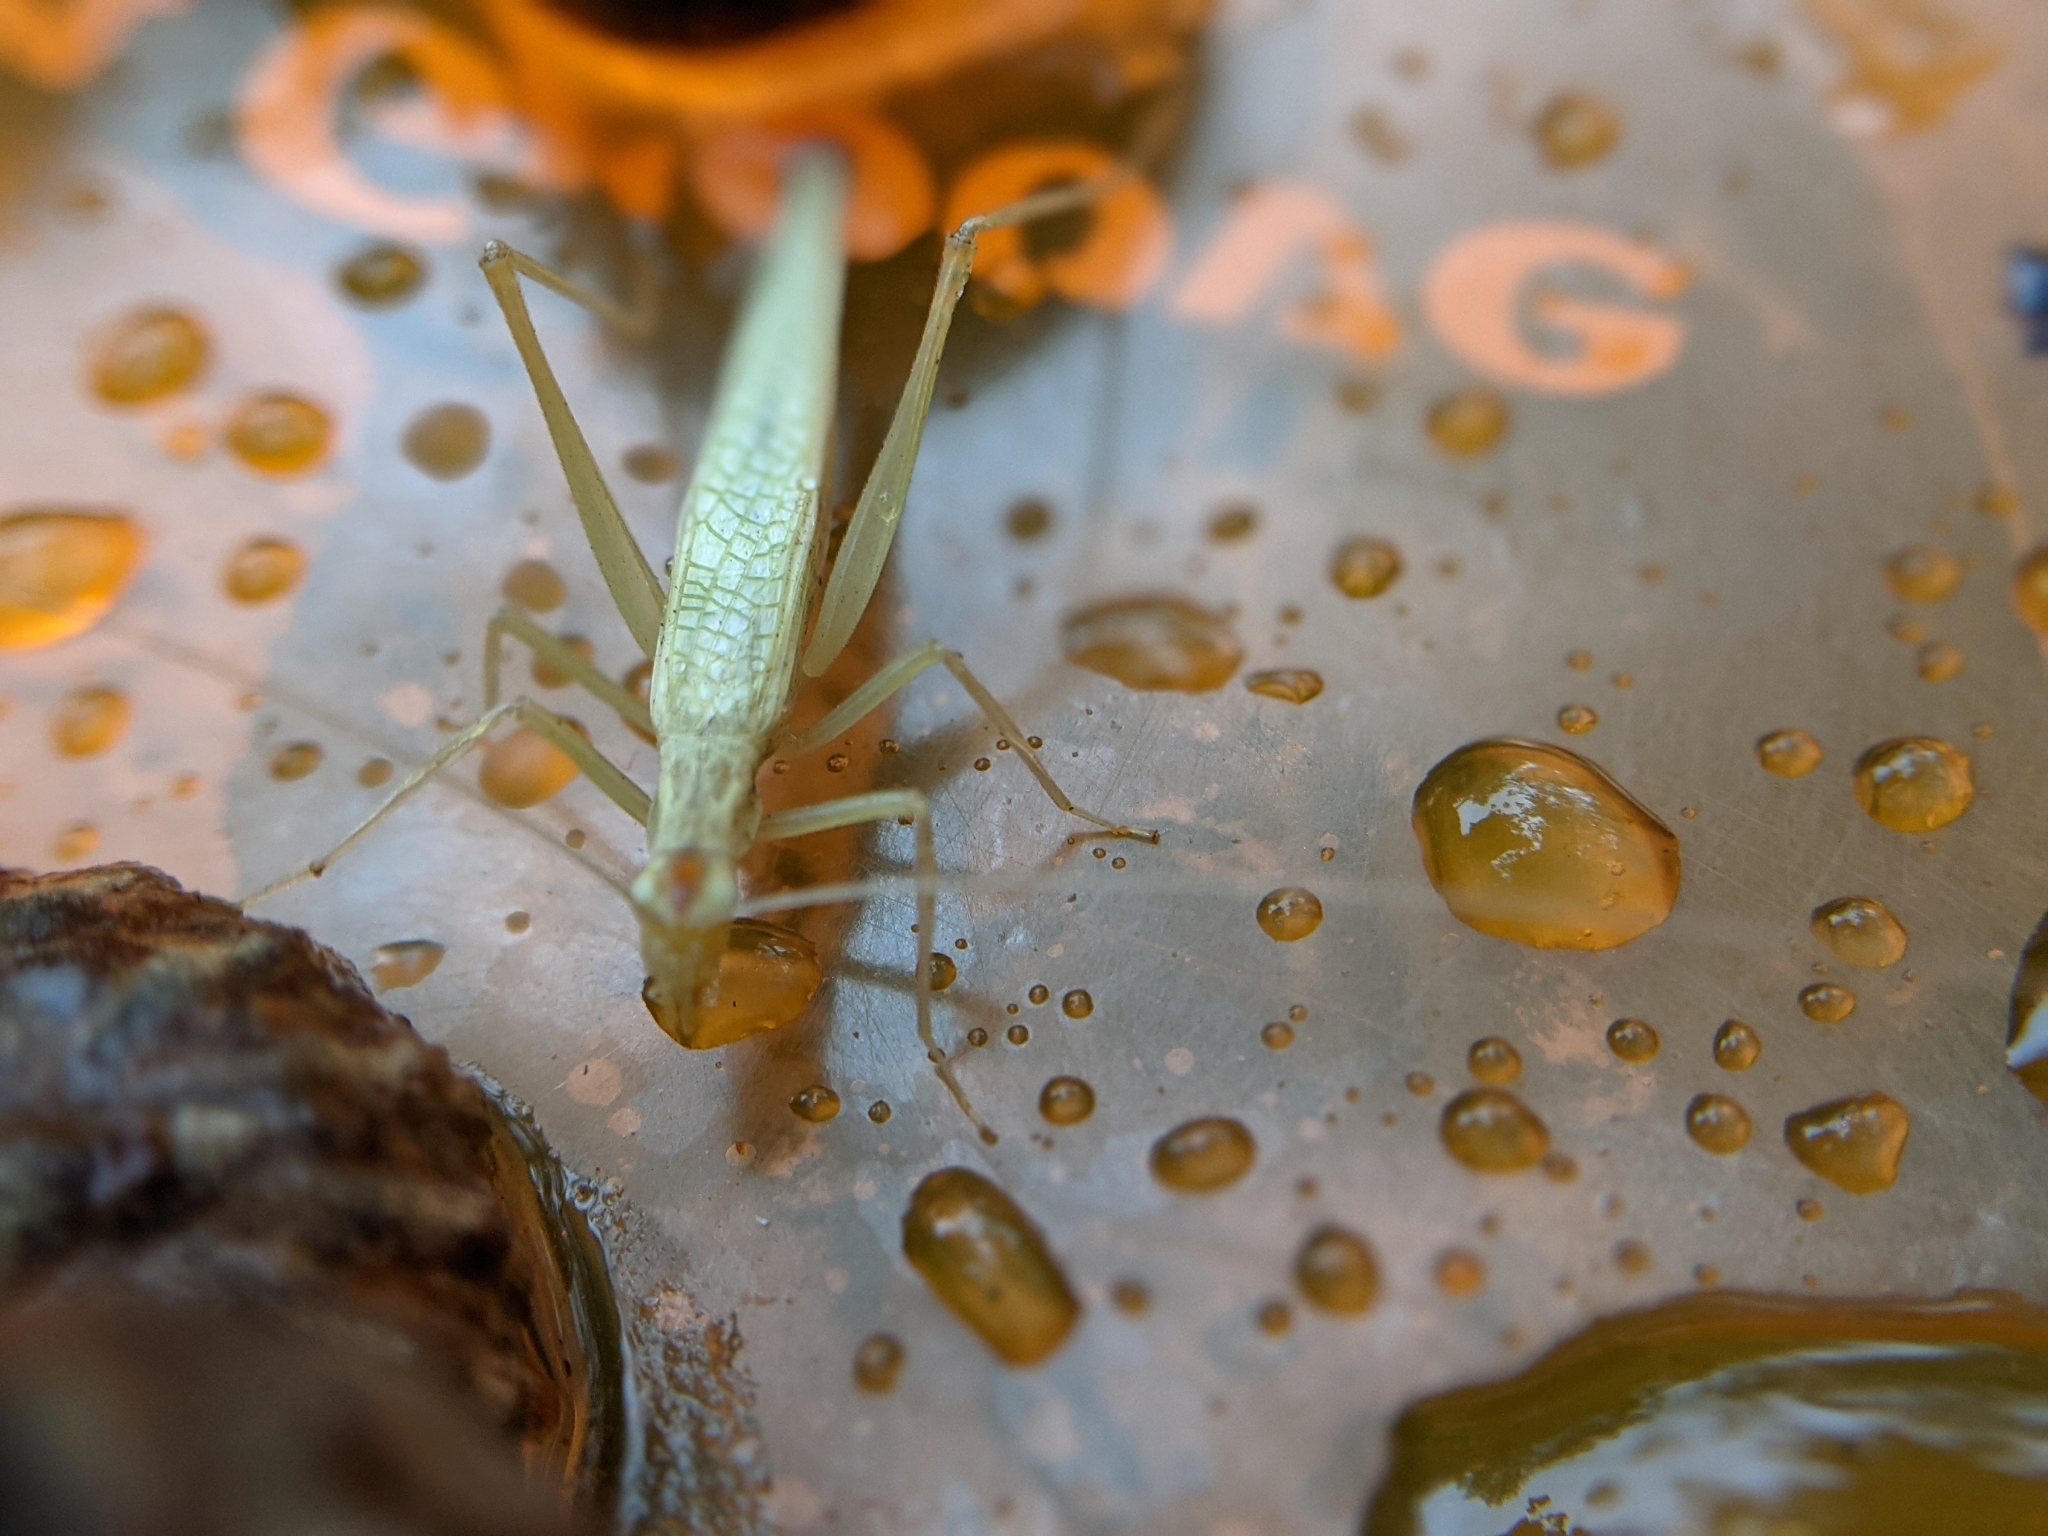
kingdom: Animalia
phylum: Arthropoda
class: Insecta
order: Orthoptera
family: Gryllidae
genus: Oecanthus
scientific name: Oecanthus
